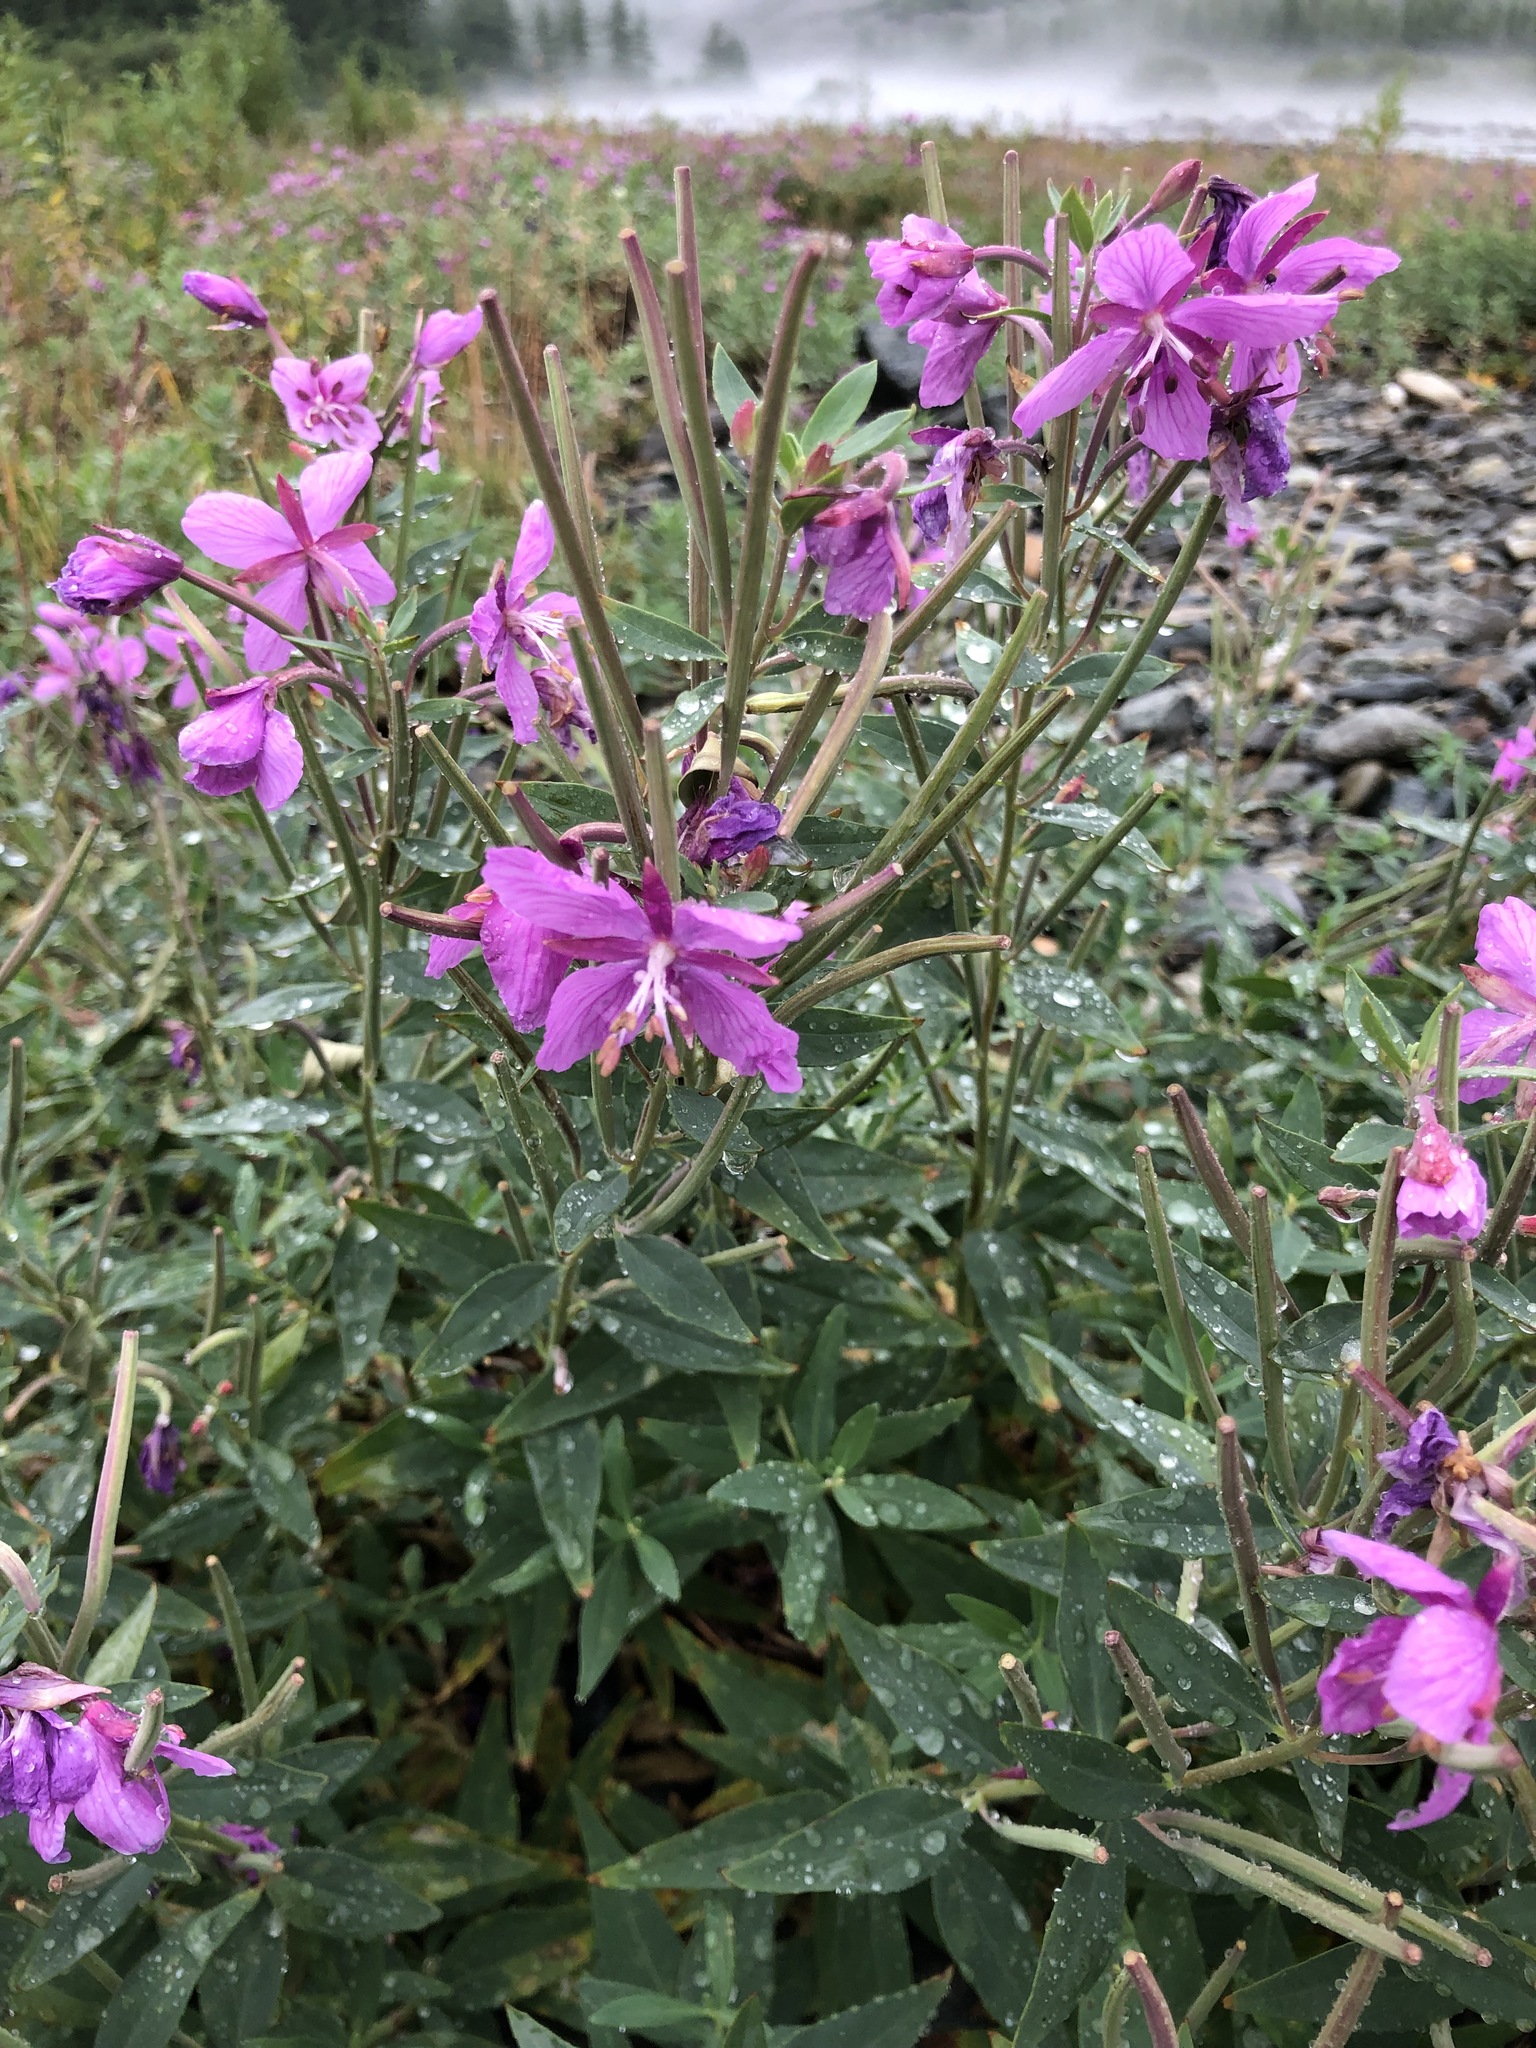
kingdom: Plantae
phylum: Tracheophyta
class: Magnoliopsida
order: Myrtales
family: Onagraceae
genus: Chamaenerion
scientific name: Chamaenerion latifolium
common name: Dwarf fireweed
